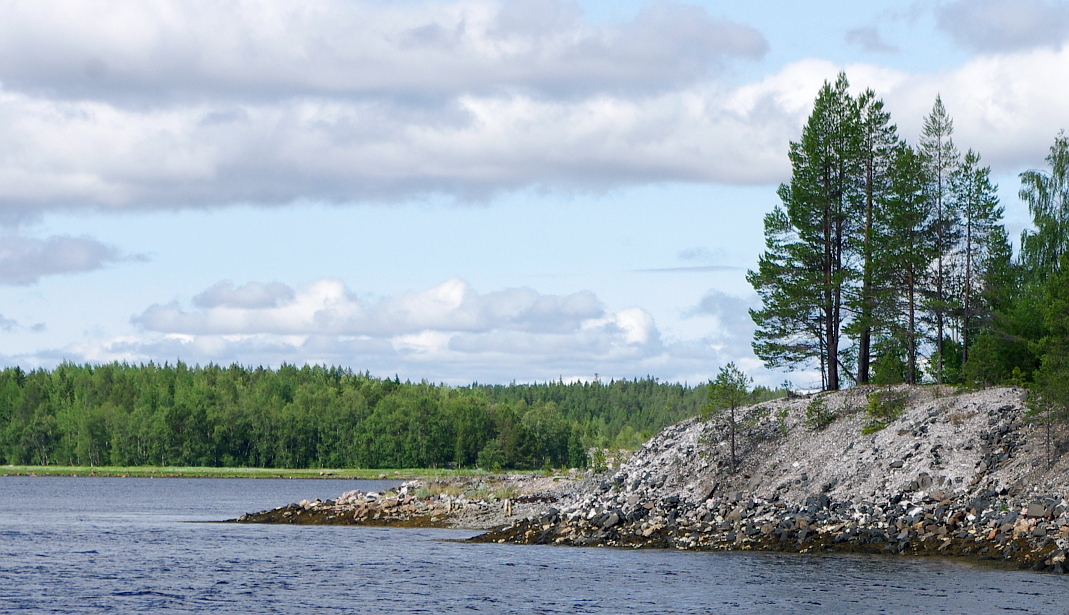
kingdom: Plantae
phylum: Tracheophyta
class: Pinopsida
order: Pinales
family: Pinaceae
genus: Pinus
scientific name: Pinus sylvestris
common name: Scots pine
